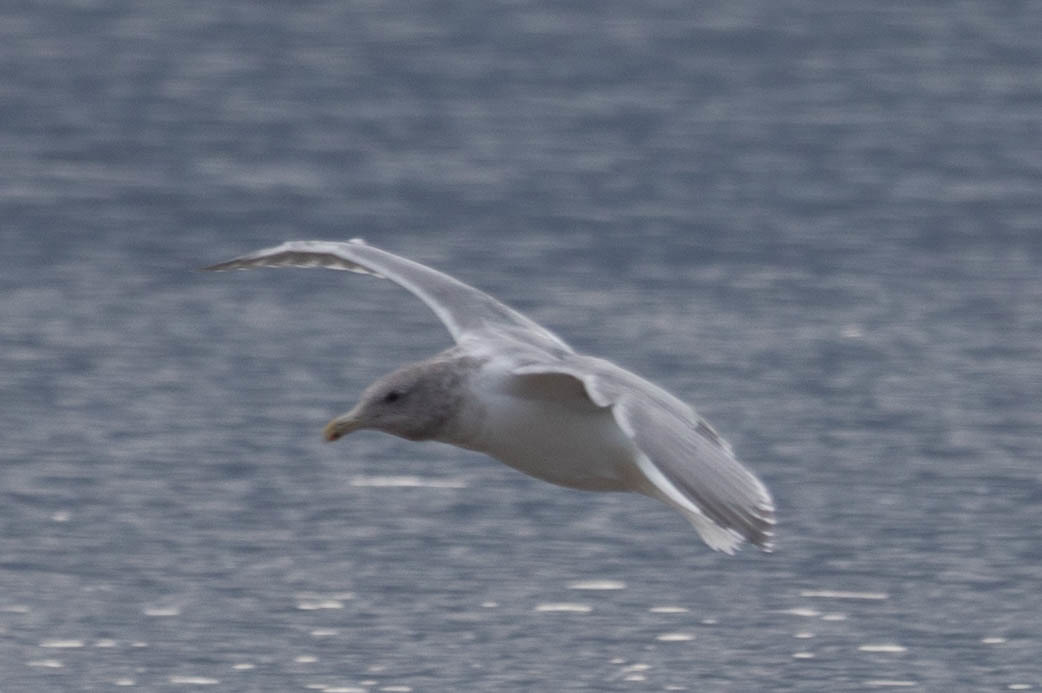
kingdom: Animalia
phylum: Chordata
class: Aves
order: Charadriiformes
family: Laridae
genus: Larus
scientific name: Larus glaucescens
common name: Glaucous-winged gull
